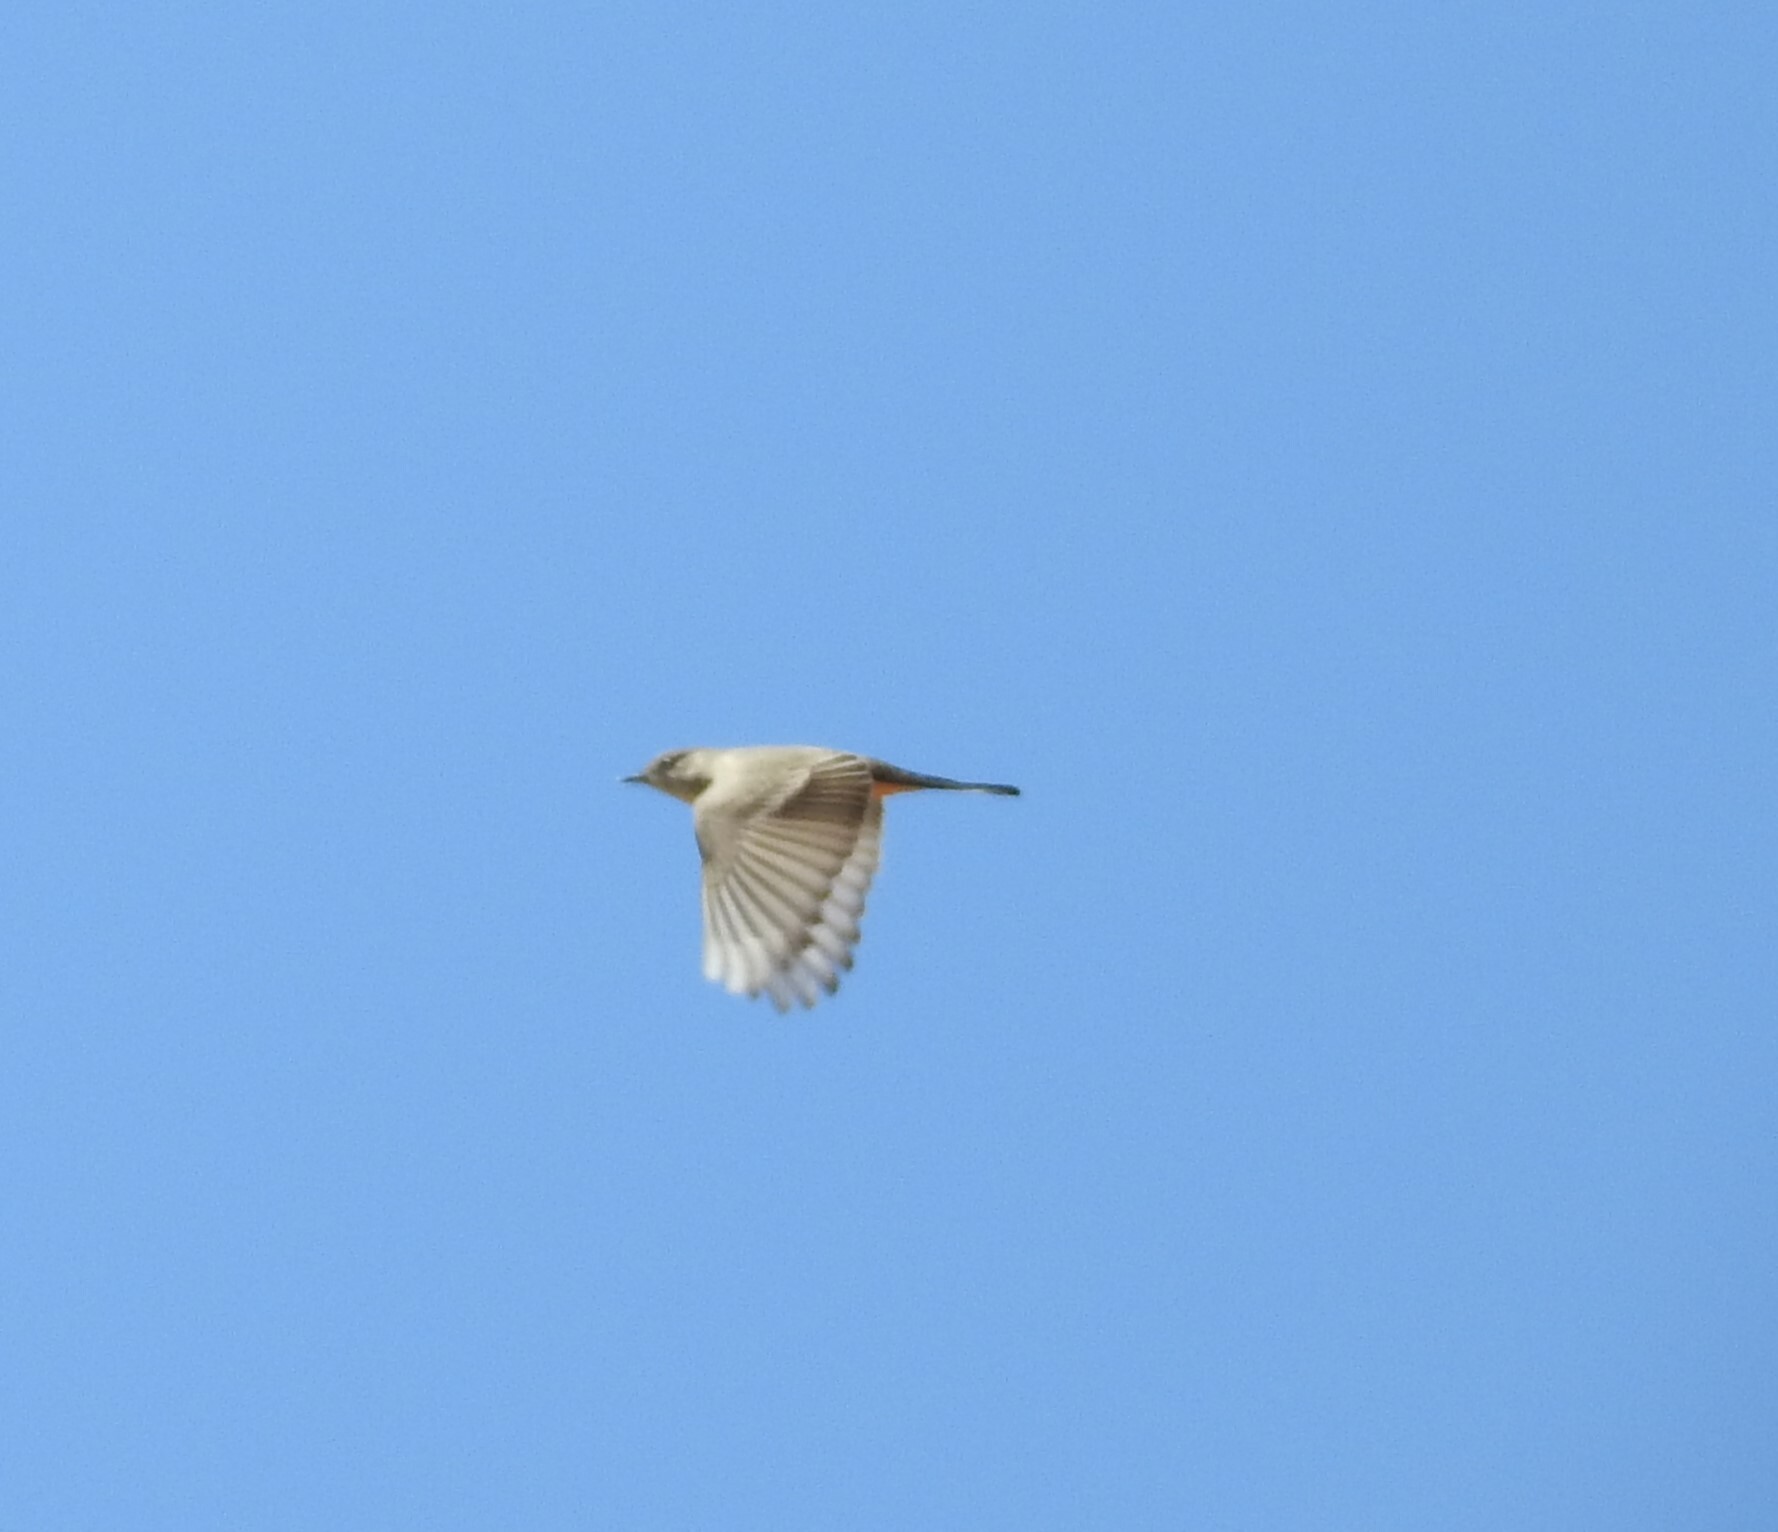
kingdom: Animalia
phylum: Chordata
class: Aves
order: Passeriformes
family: Tyrannidae
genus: Sayornis
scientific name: Sayornis saya
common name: Say's phoebe
